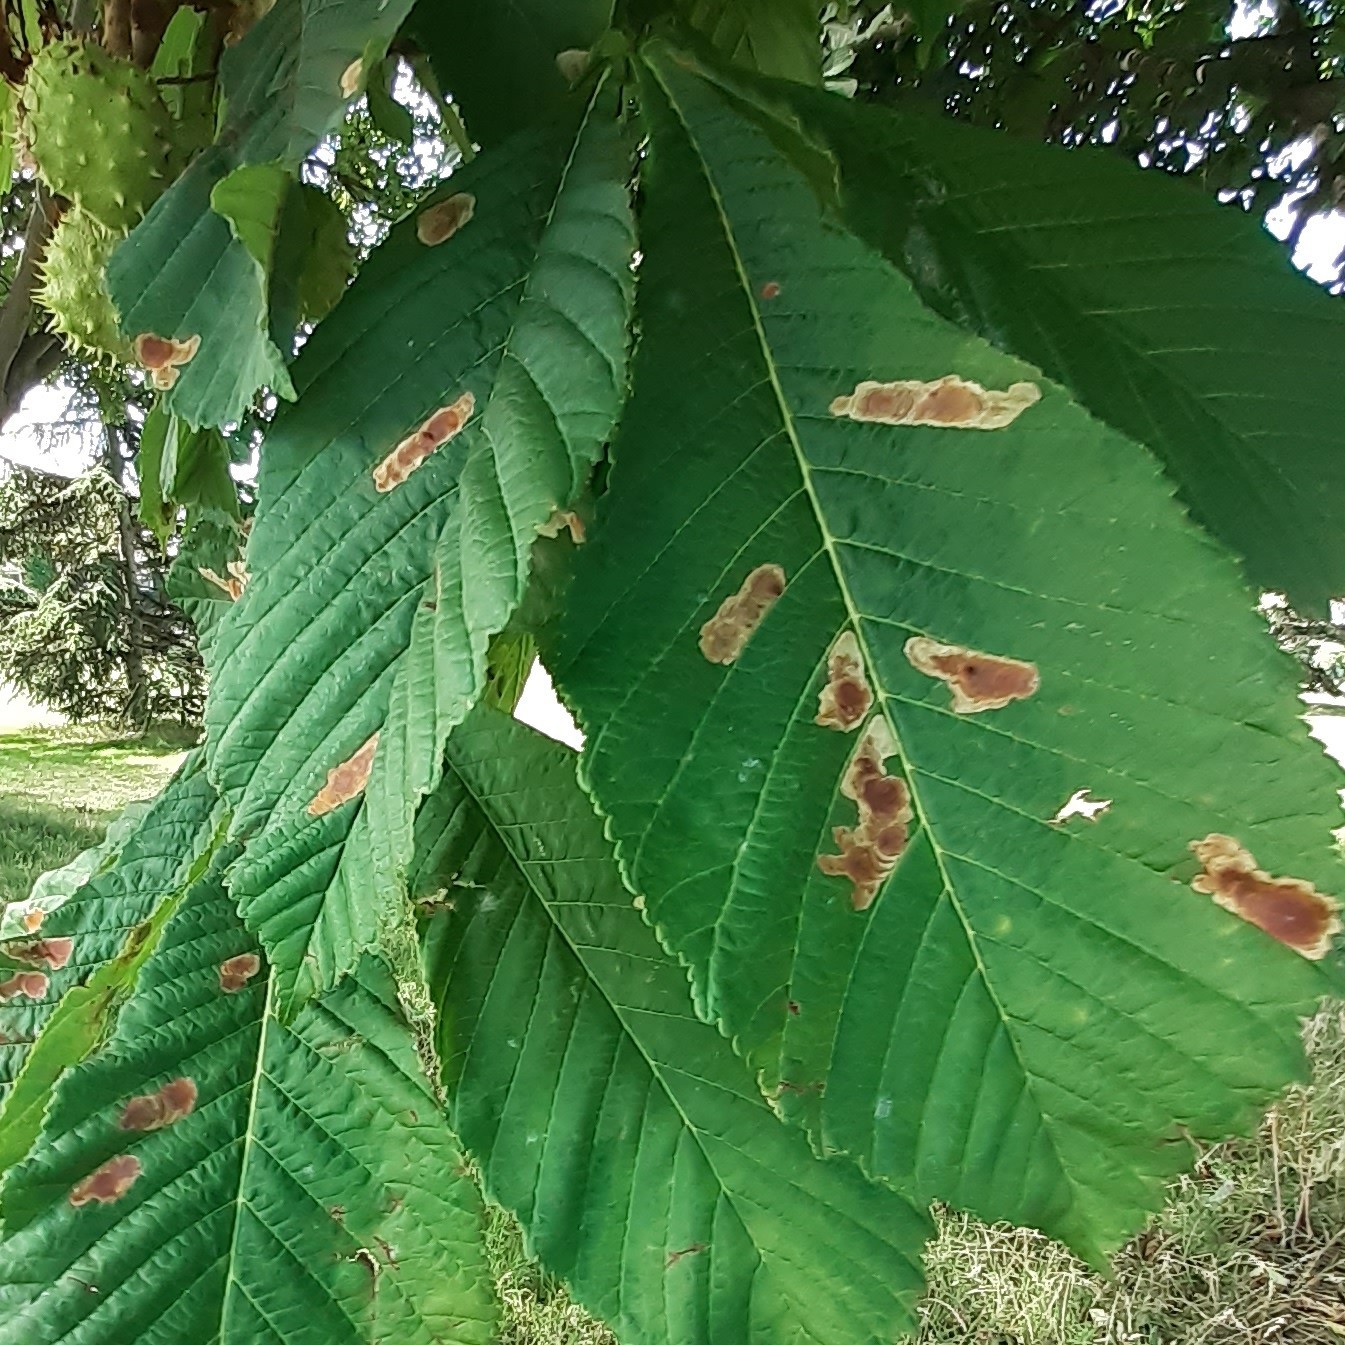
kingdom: Animalia
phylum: Arthropoda
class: Insecta
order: Lepidoptera
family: Gracillariidae
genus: Cameraria
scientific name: Cameraria ohridella
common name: Horse-chestnut leaf-miner
